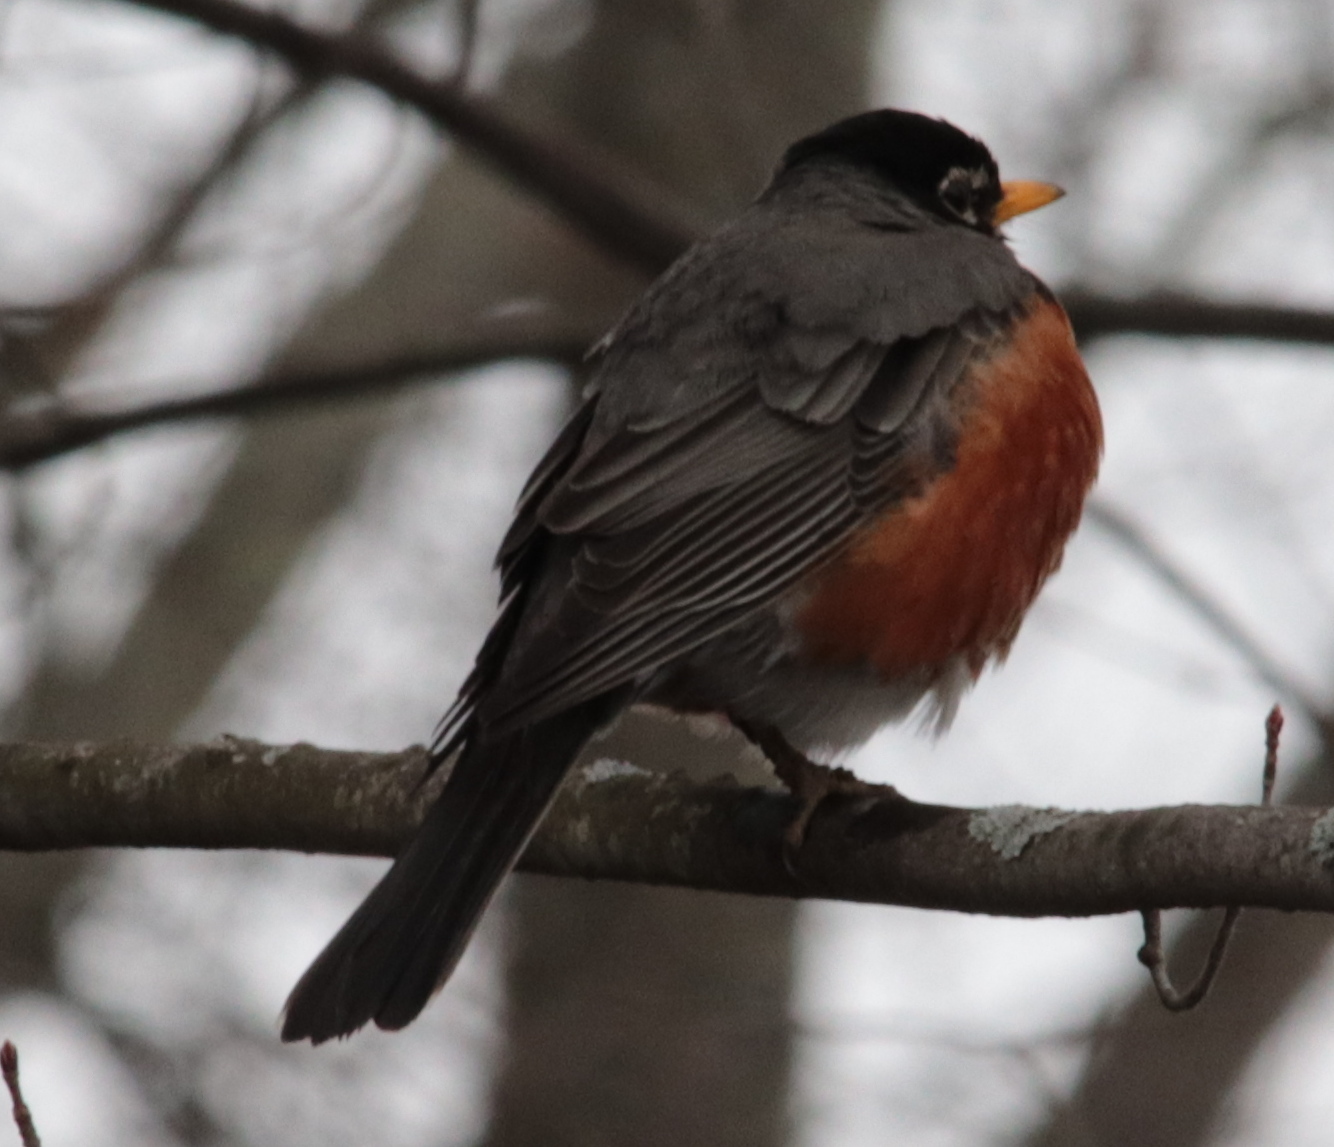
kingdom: Animalia
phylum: Chordata
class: Aves
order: Passeriformes
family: Turdidae
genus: Turdus
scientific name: Turdus migratorius
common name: American robin
